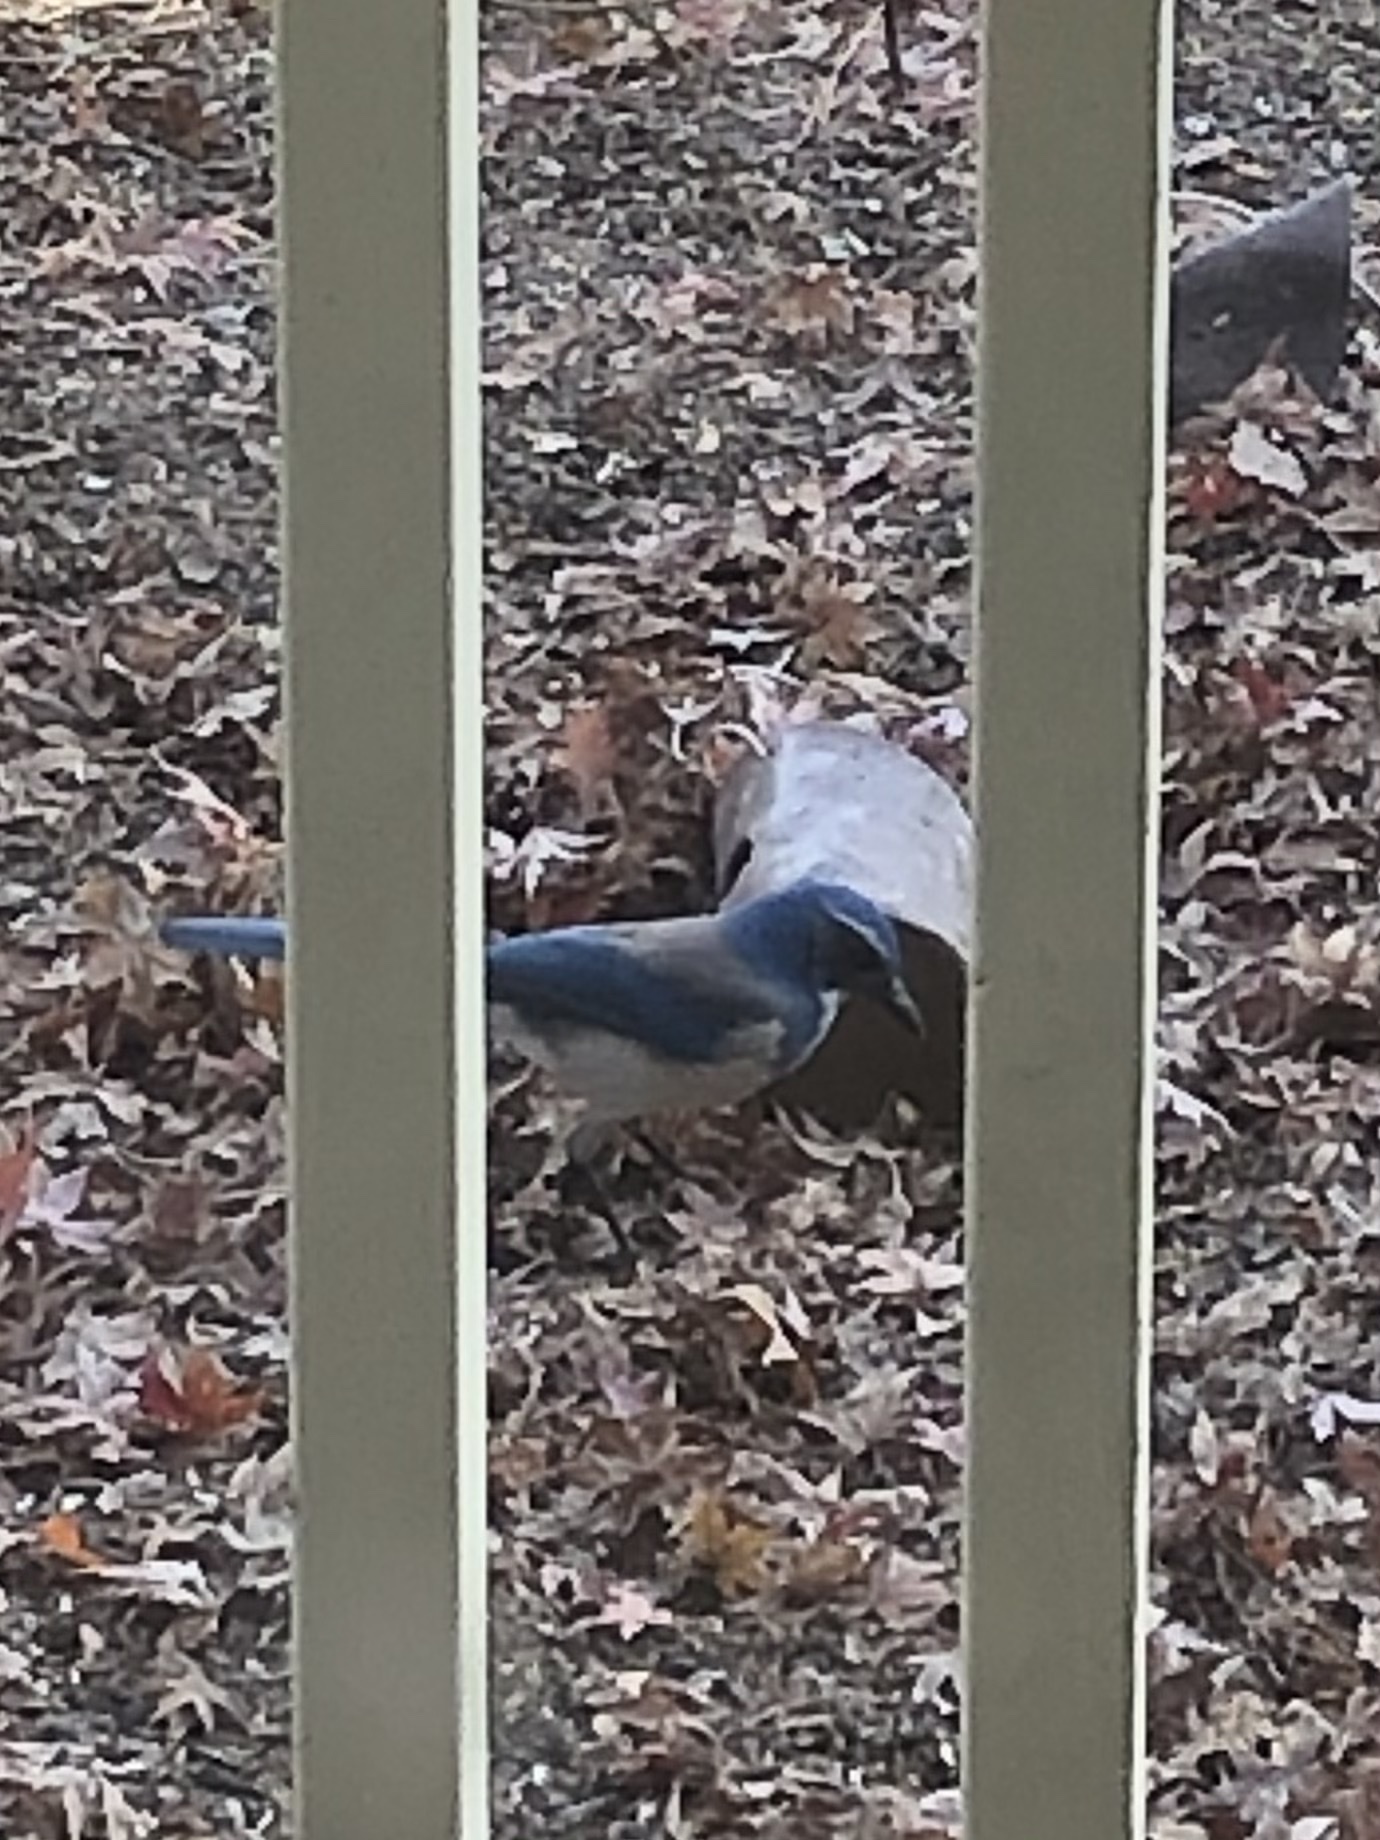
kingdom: Animalia
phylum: Chordata
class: Aves
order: Passeriformes
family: Corvidae
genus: Aphelocoma
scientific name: Aphelocoma californica
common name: California scrub-jay
